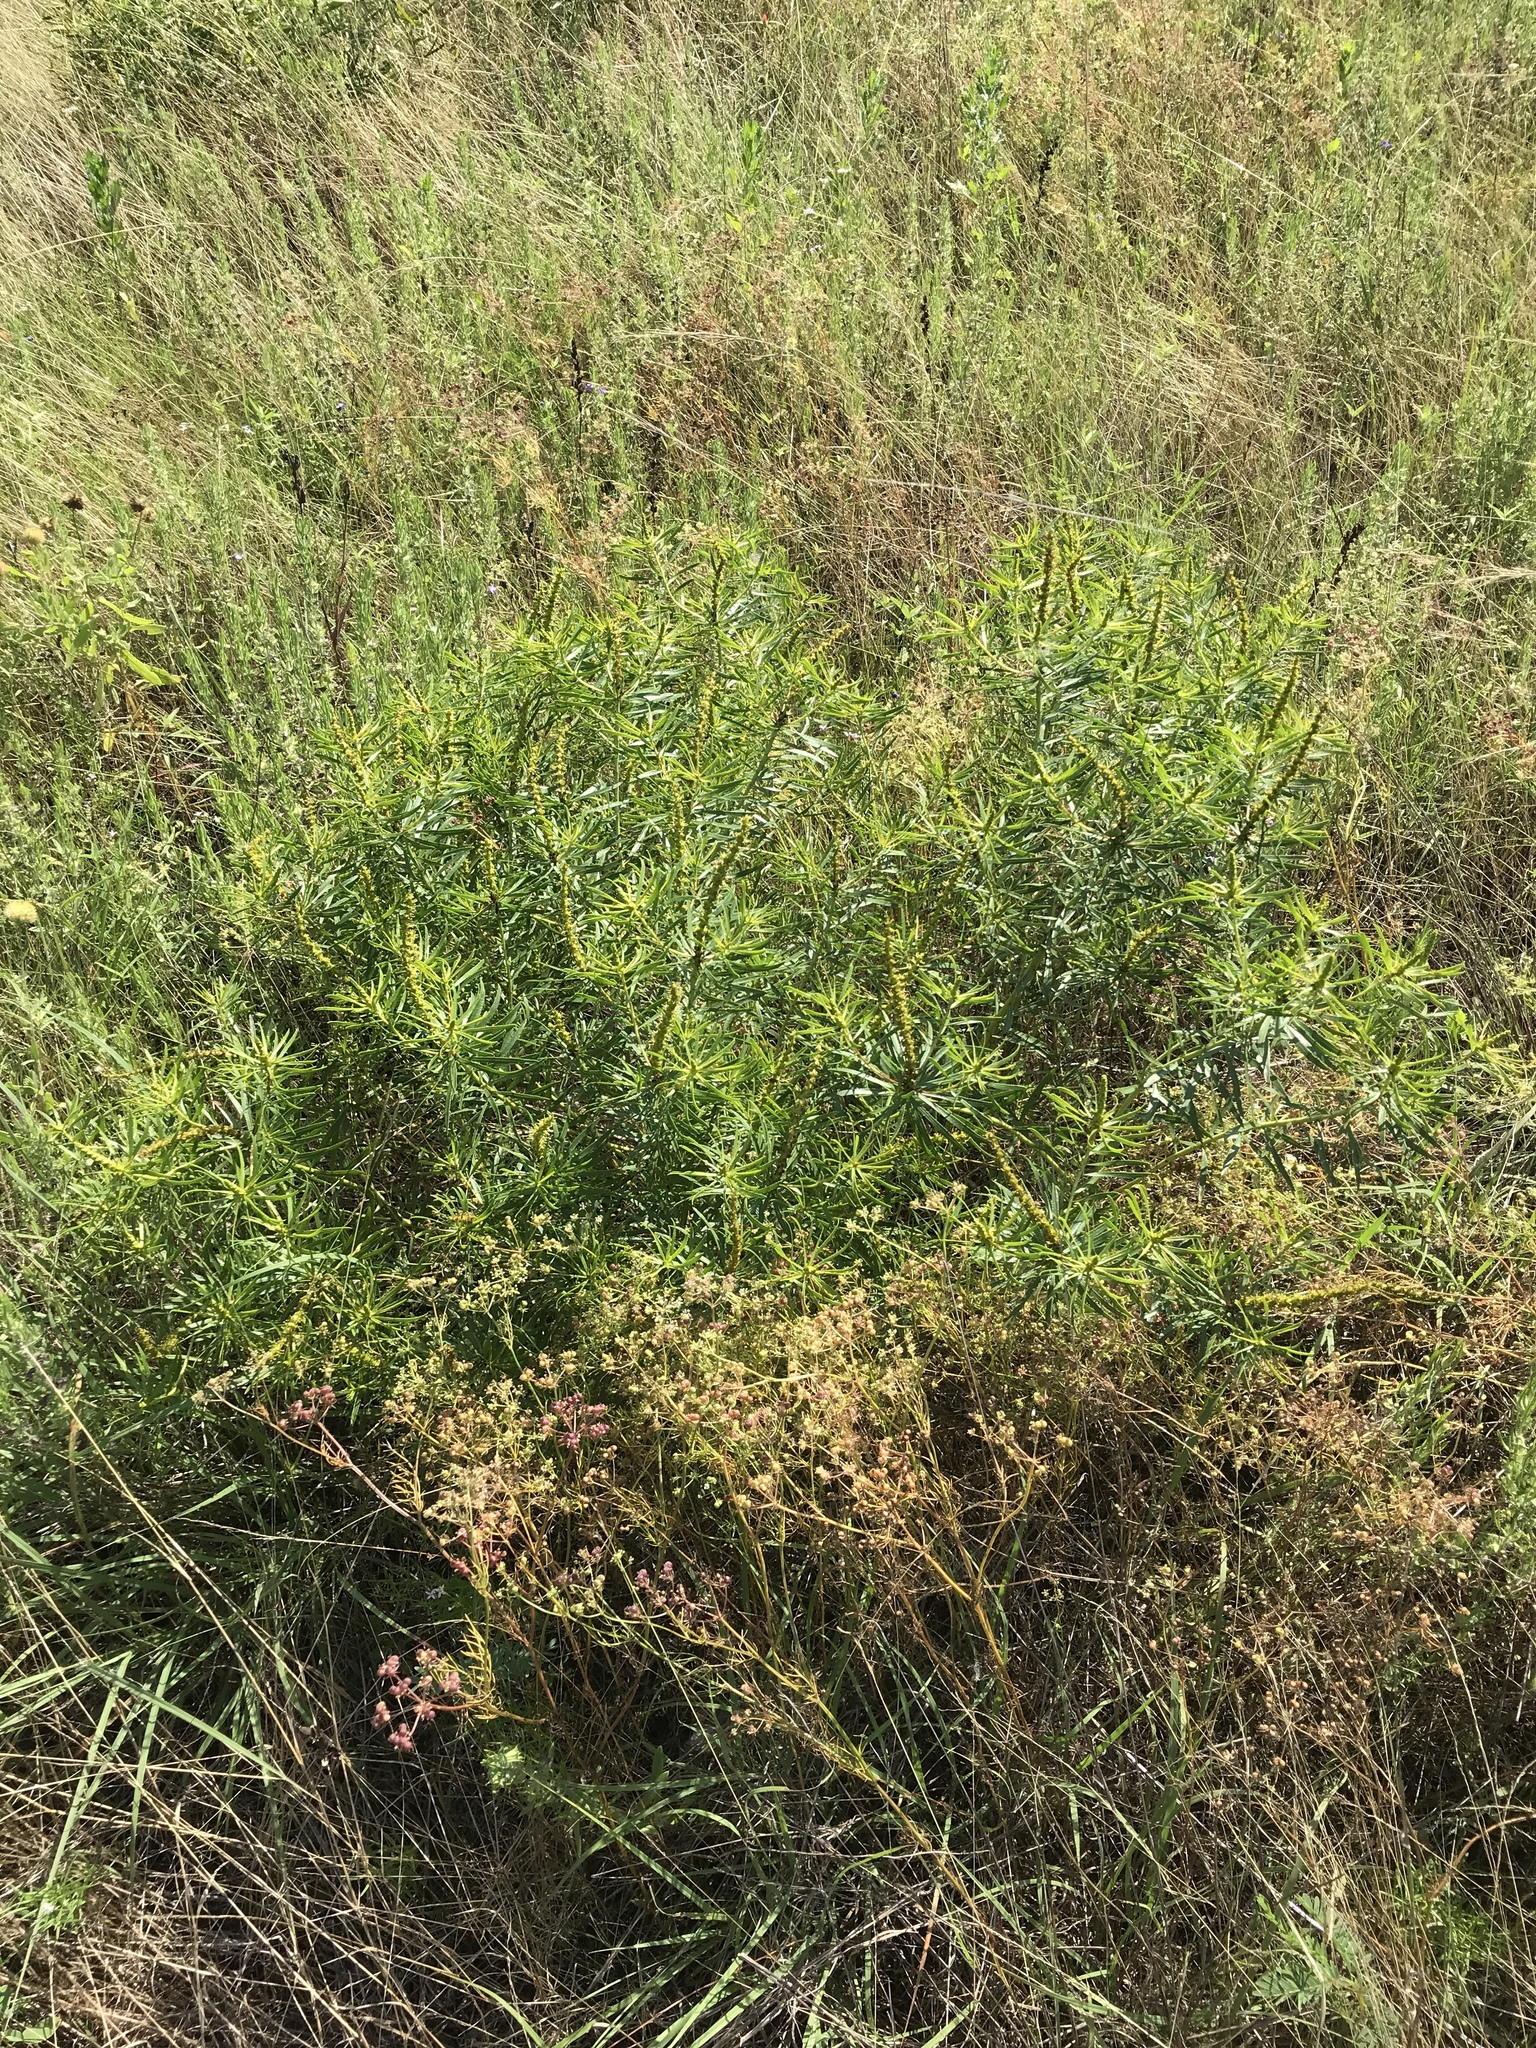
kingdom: Plantae
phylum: Tracheophyta
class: Magnoliopsida
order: Malpighiales
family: Euphorbiaceae
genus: Stillingia
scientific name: Stillingia texana
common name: Texas stillingia
